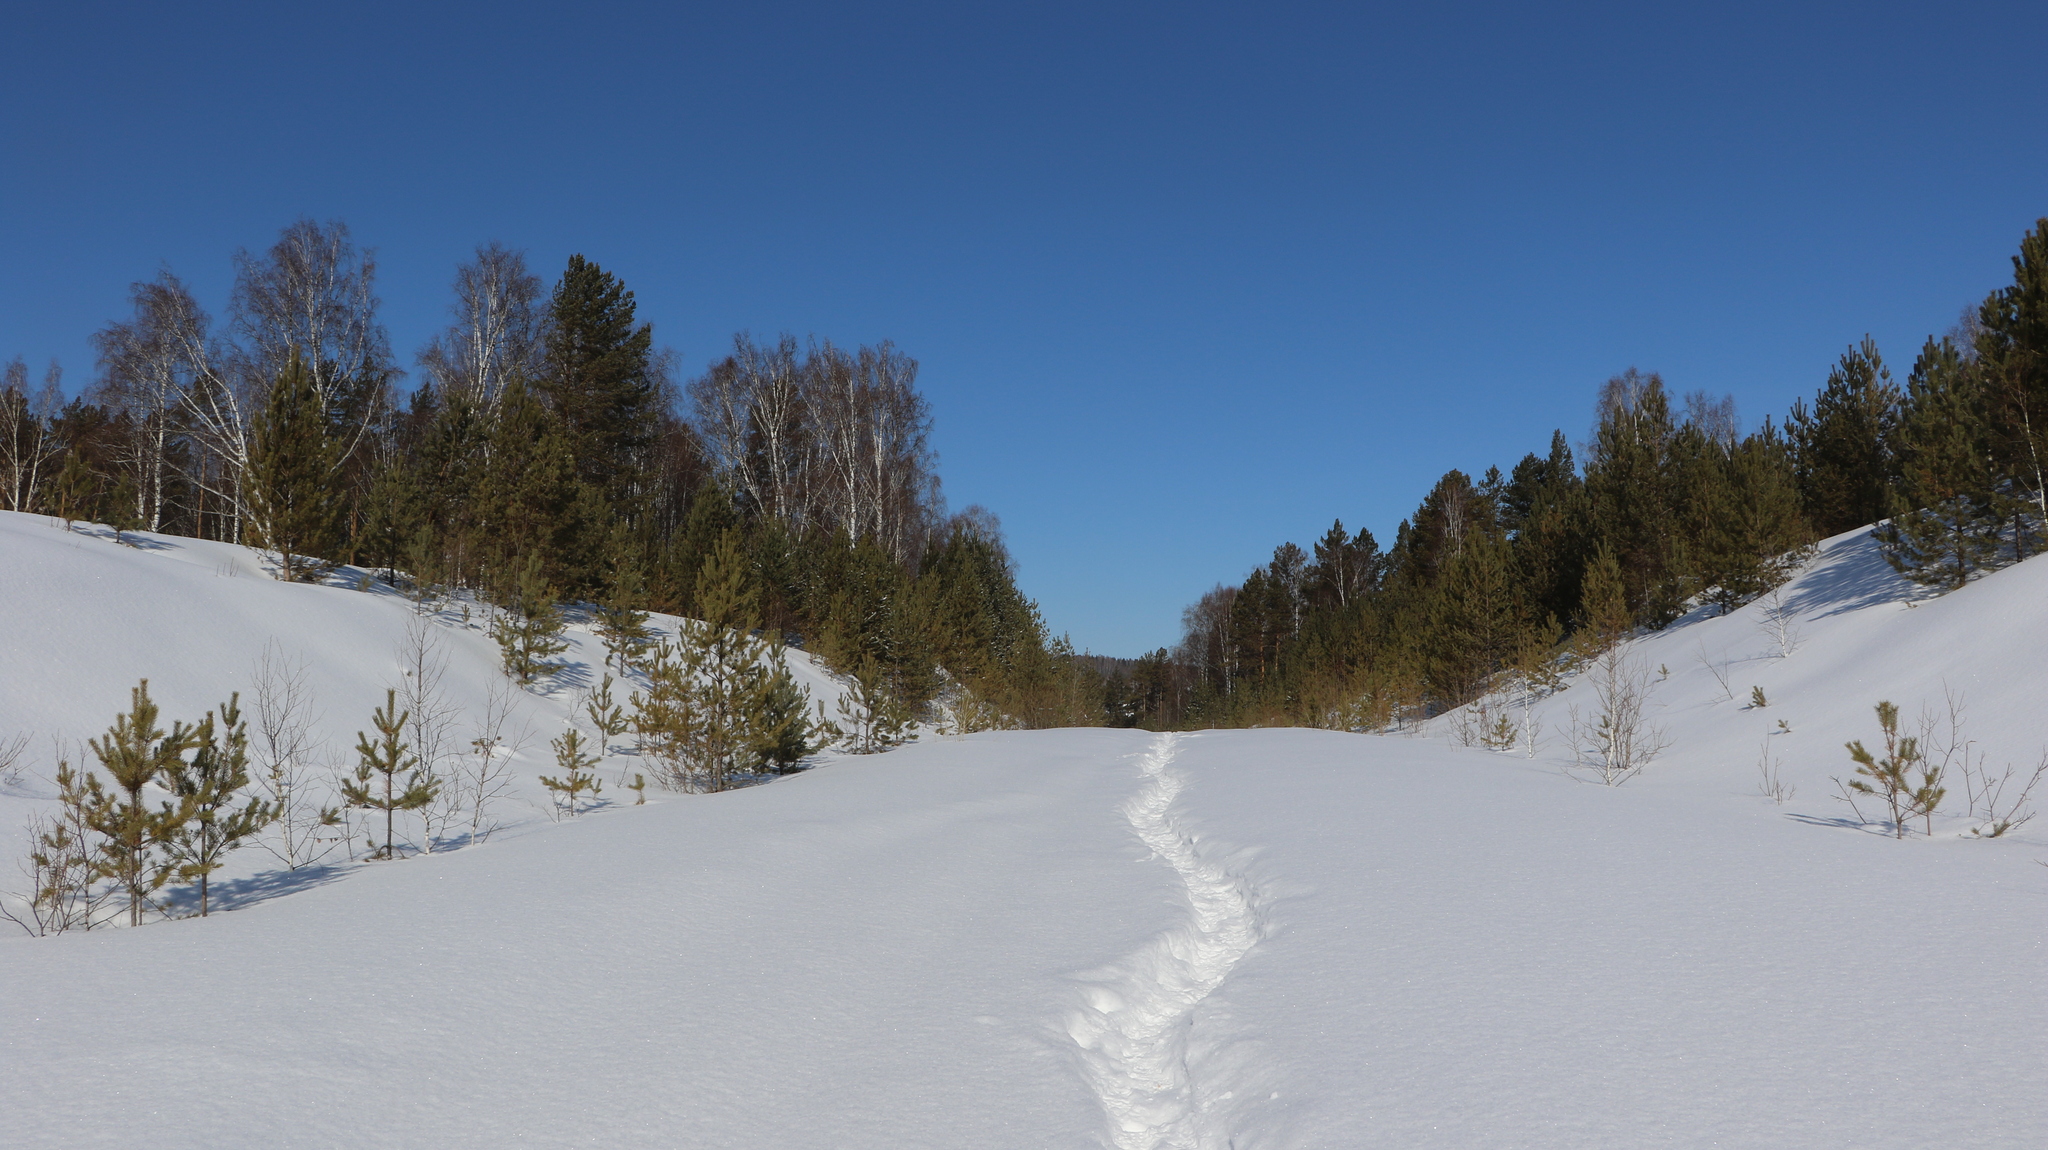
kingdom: Plantae
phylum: Tracheophyta
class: Pinopsida
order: Pinales
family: Pinaceae
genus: Pinus
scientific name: Pinus sylvestris
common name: Scots pine
